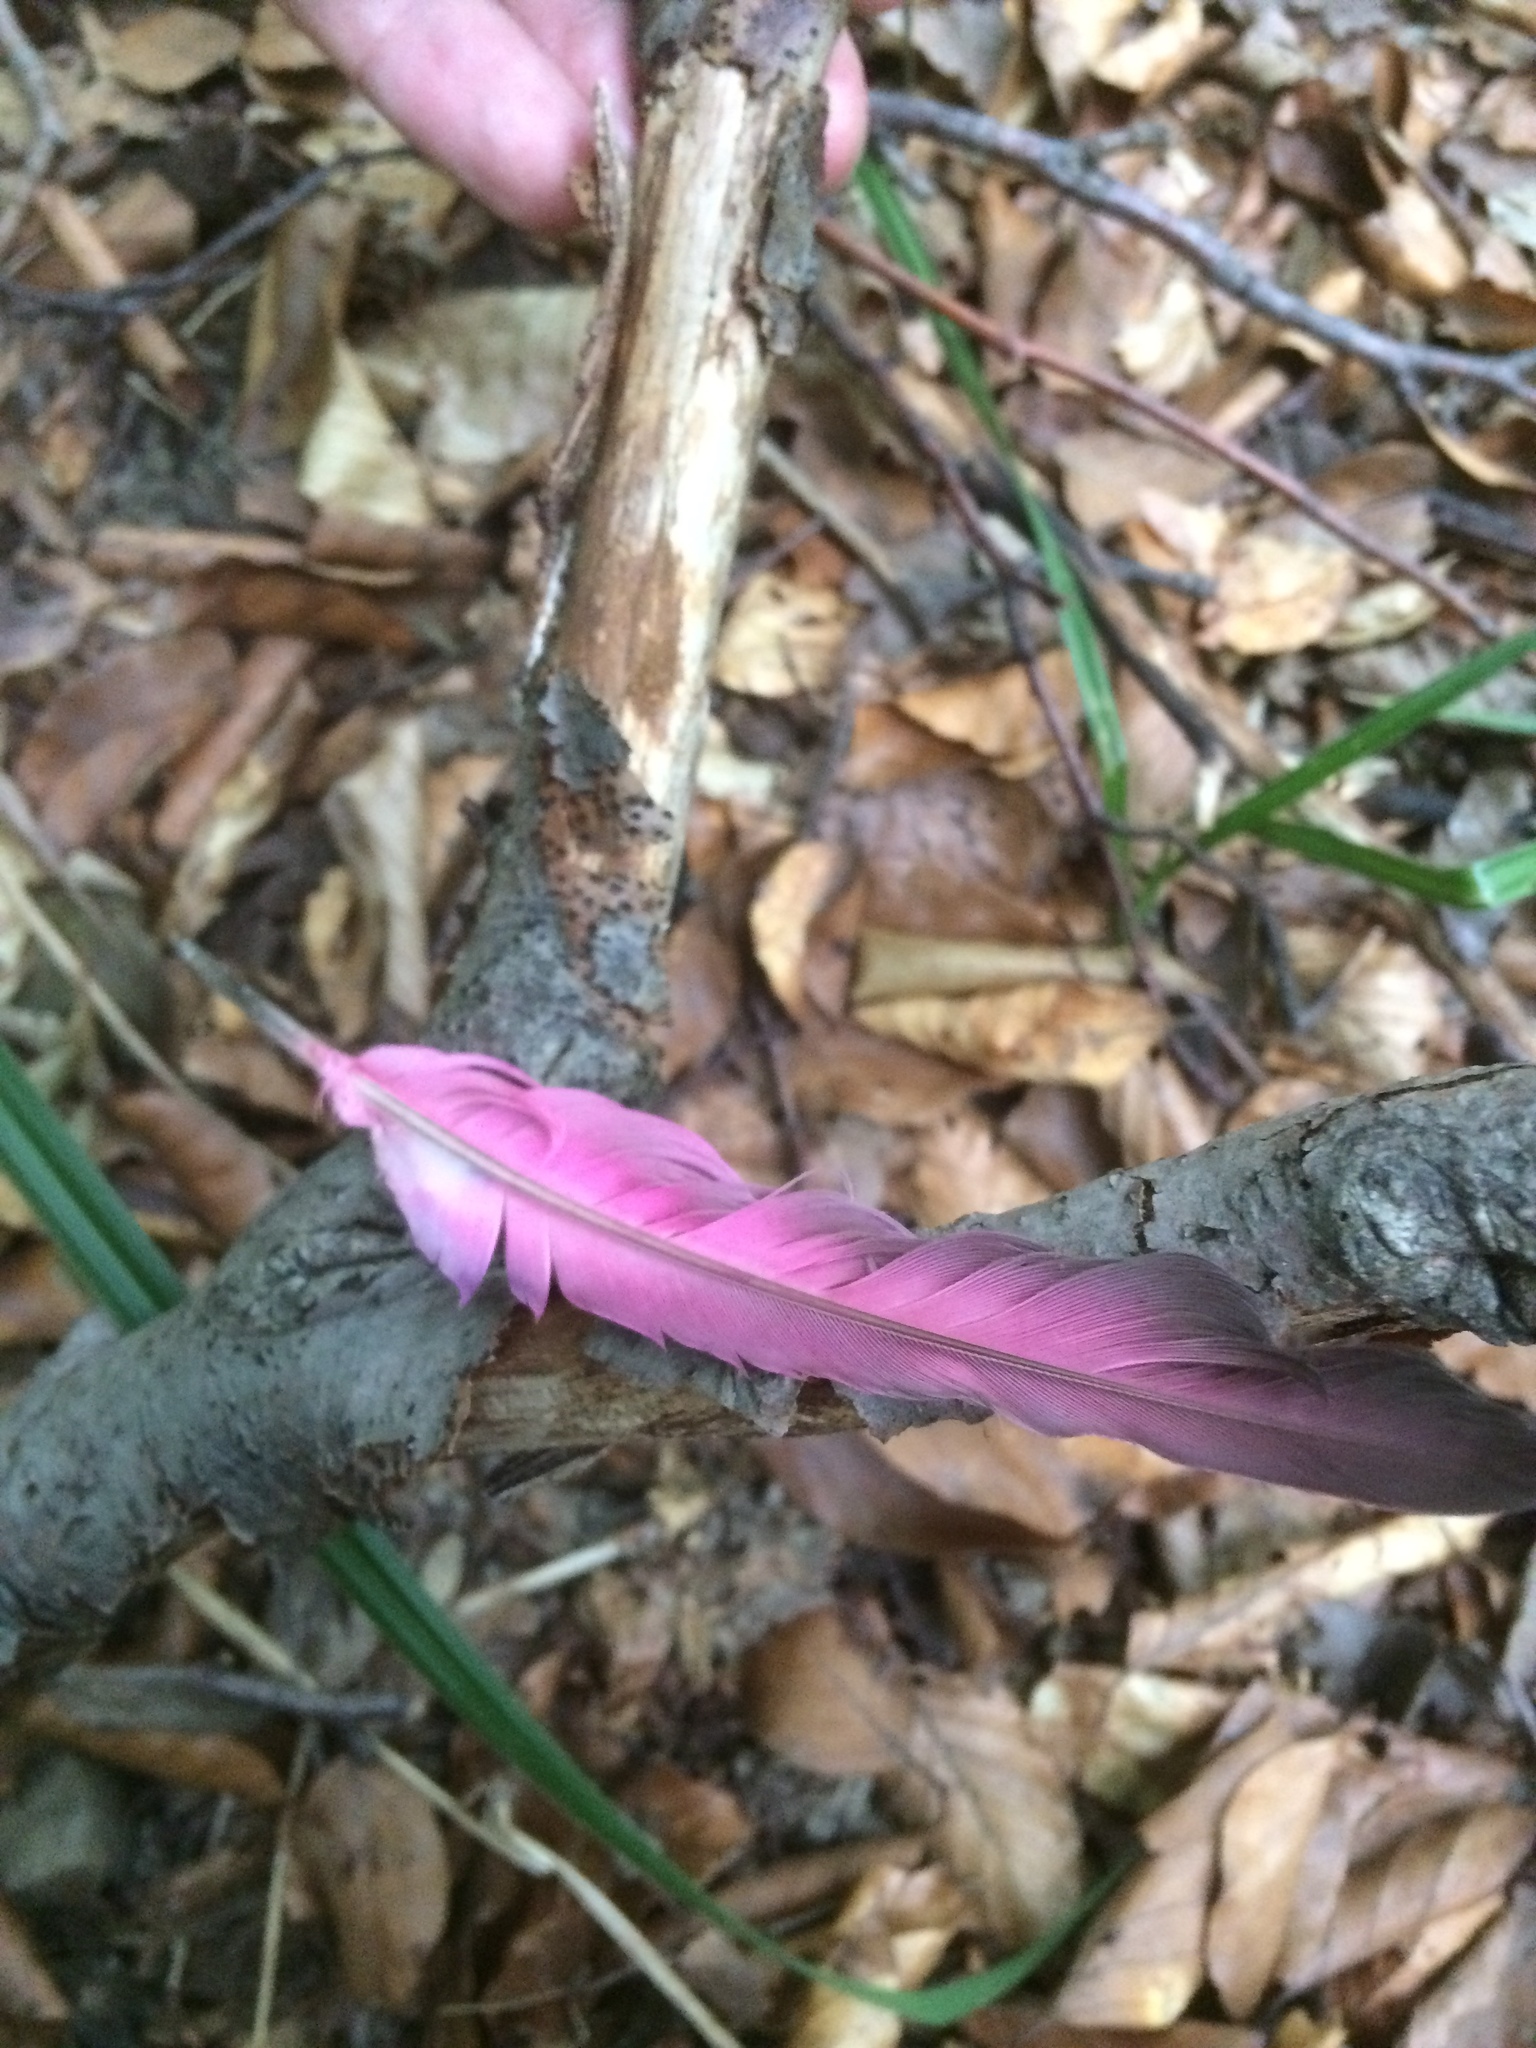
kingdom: Animalia
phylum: Chordata
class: Aves
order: Columbiformes
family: Columbidae
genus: Columba
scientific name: Columba livia
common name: Rock pigeon
